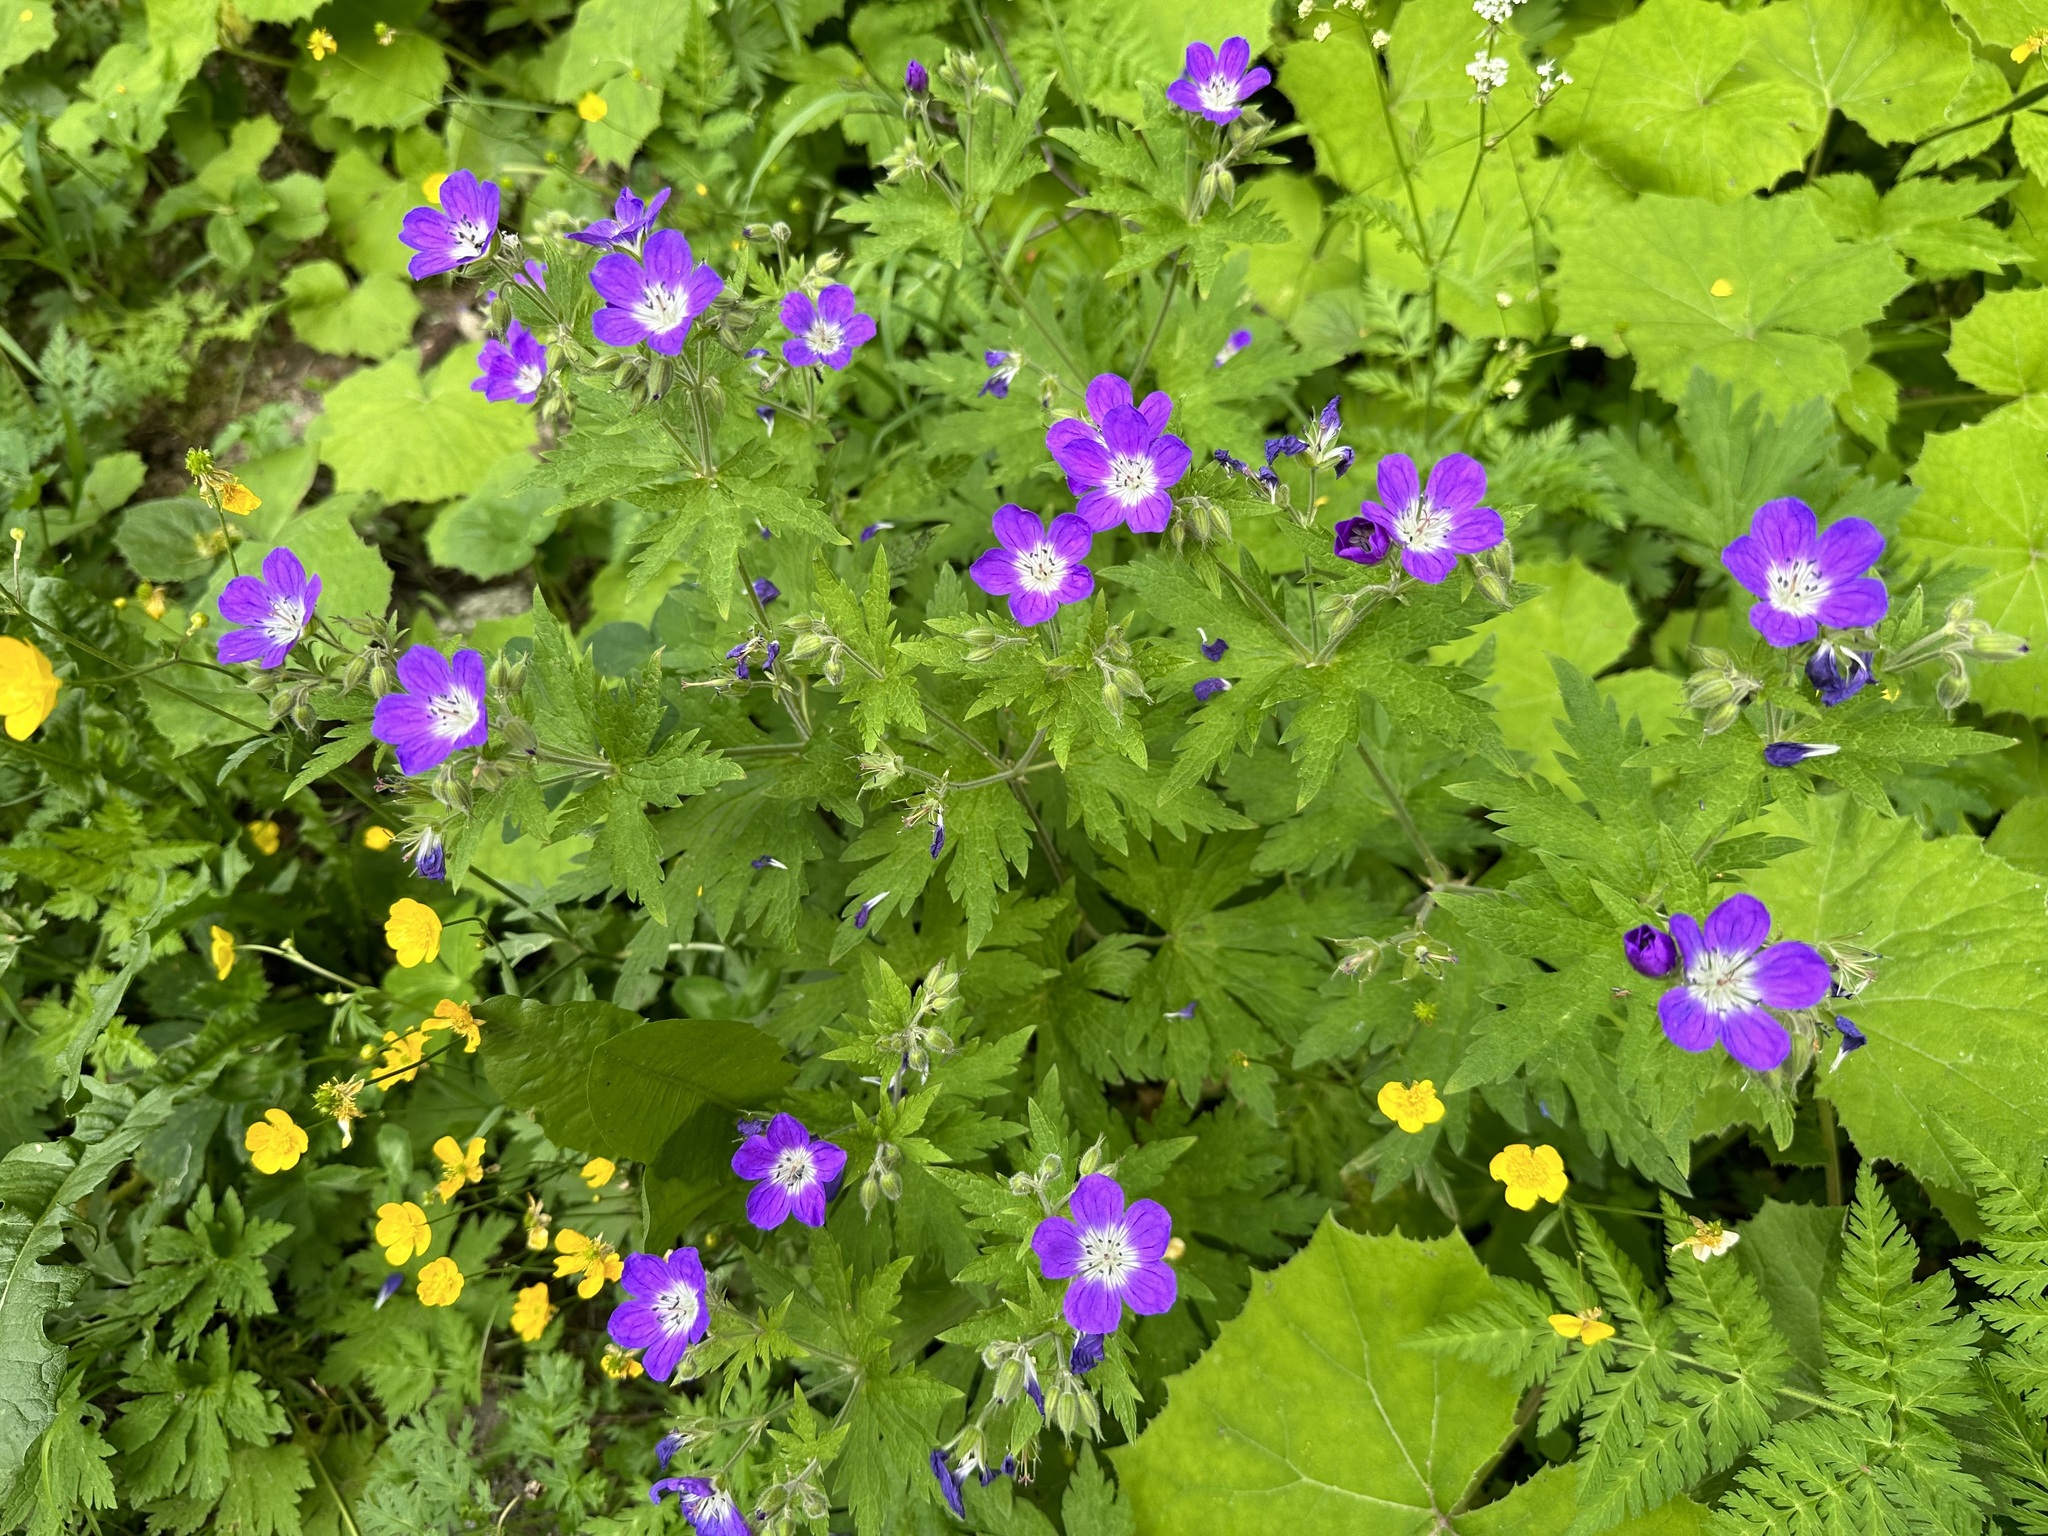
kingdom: Plantae
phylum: Tracheophyta
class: Magnoliopsida
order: Geraniales
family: Geraniaceae
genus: Geranium
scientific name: Geranium sylvaticum
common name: Wood crane's-bill
